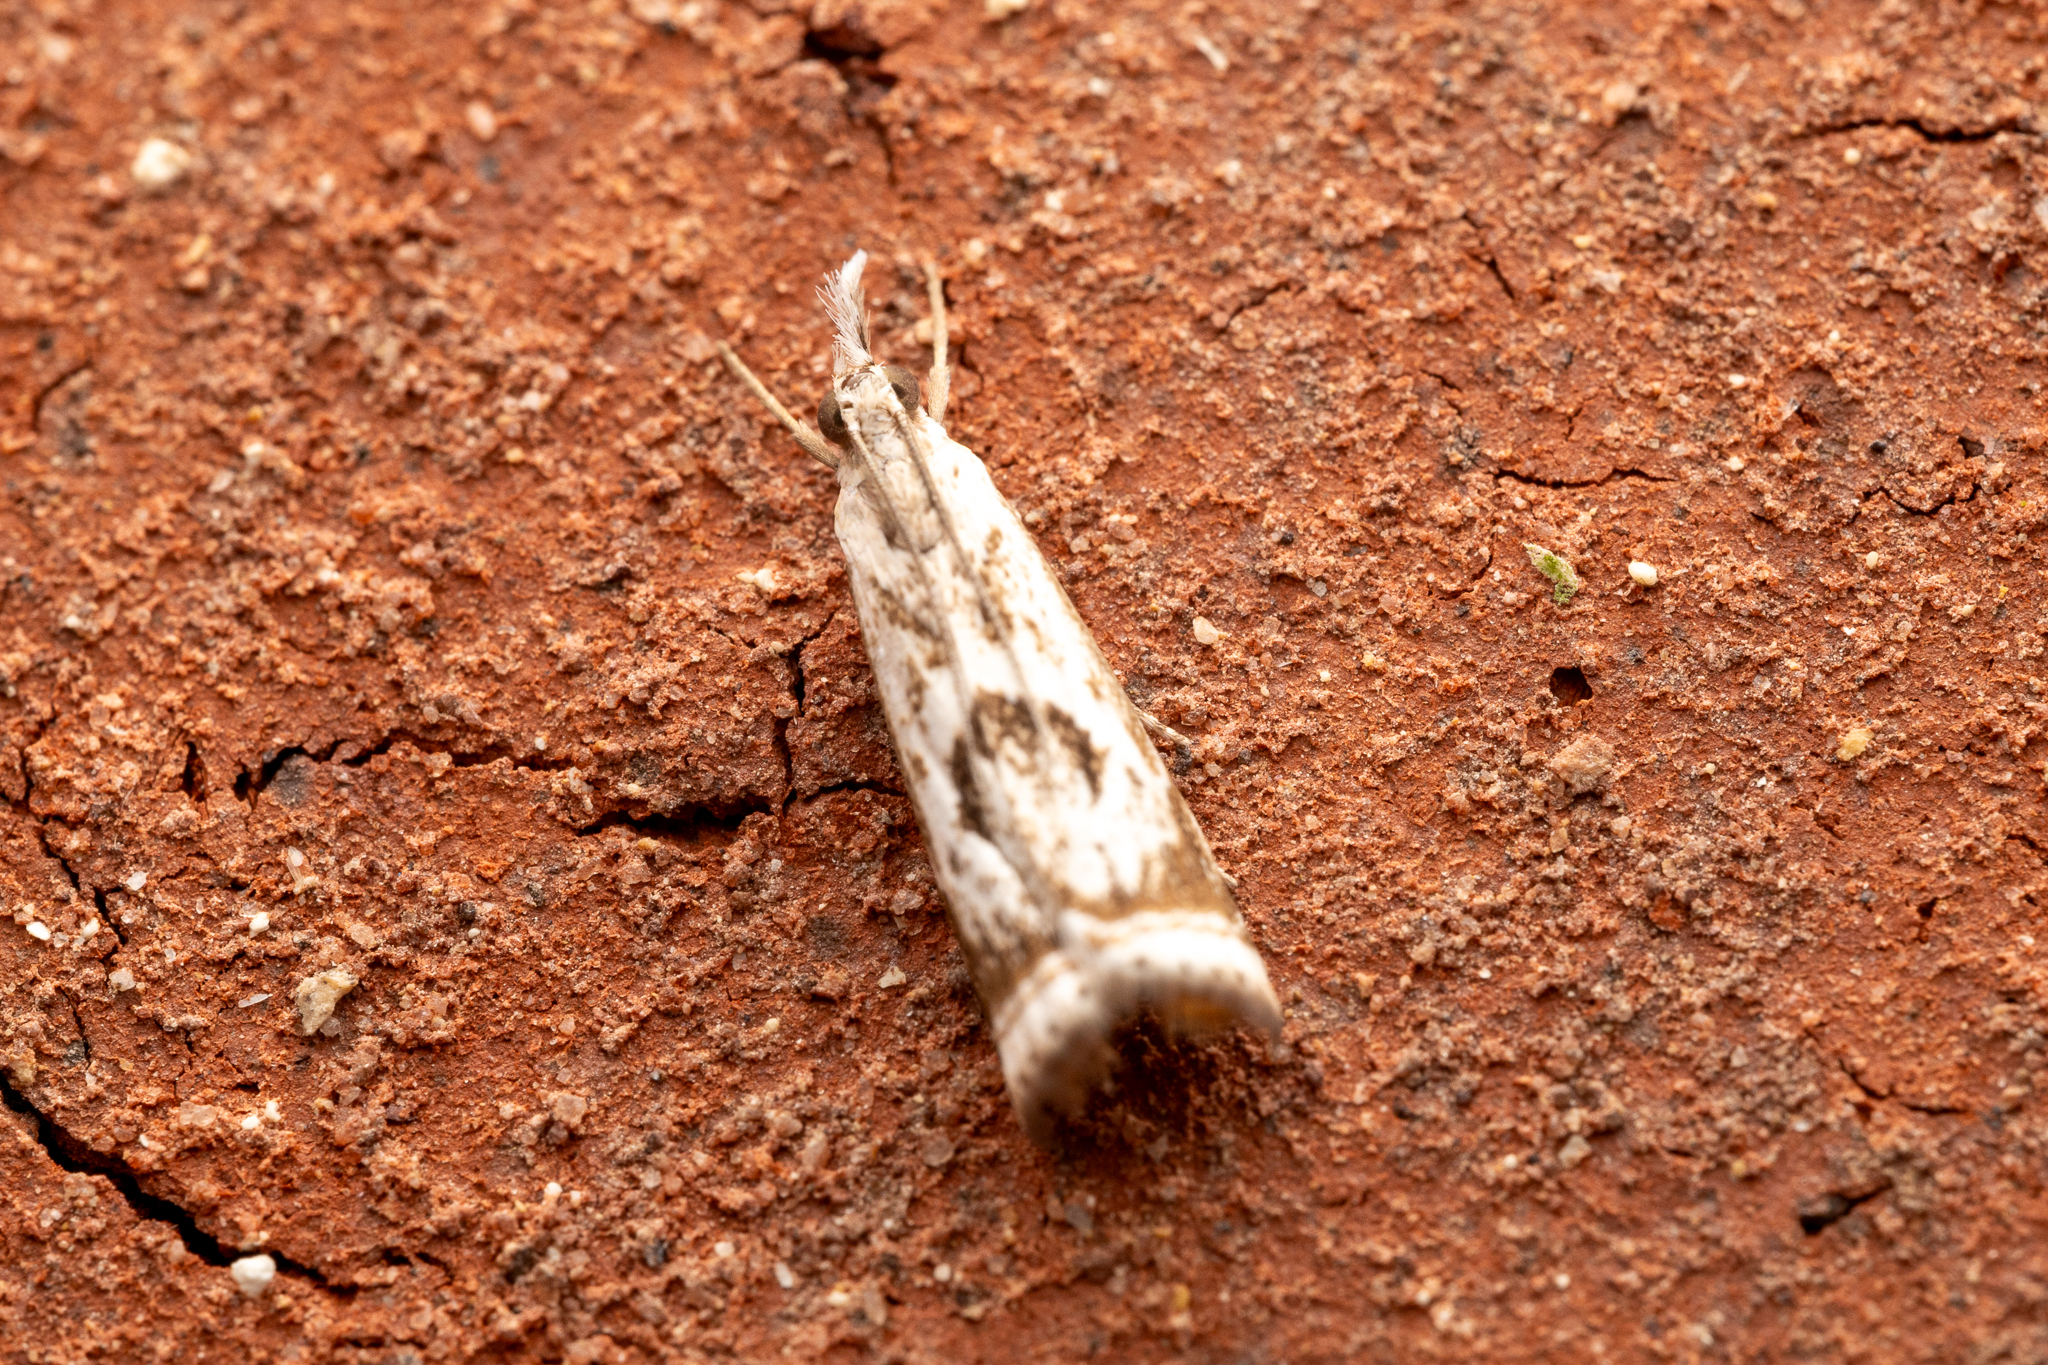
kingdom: Animalia
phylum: Arthropoda
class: Insecta
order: Lepidoptera
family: Crambidae
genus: Microcrambus
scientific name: Microcrambus elegans
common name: Elegant grass-veneer
